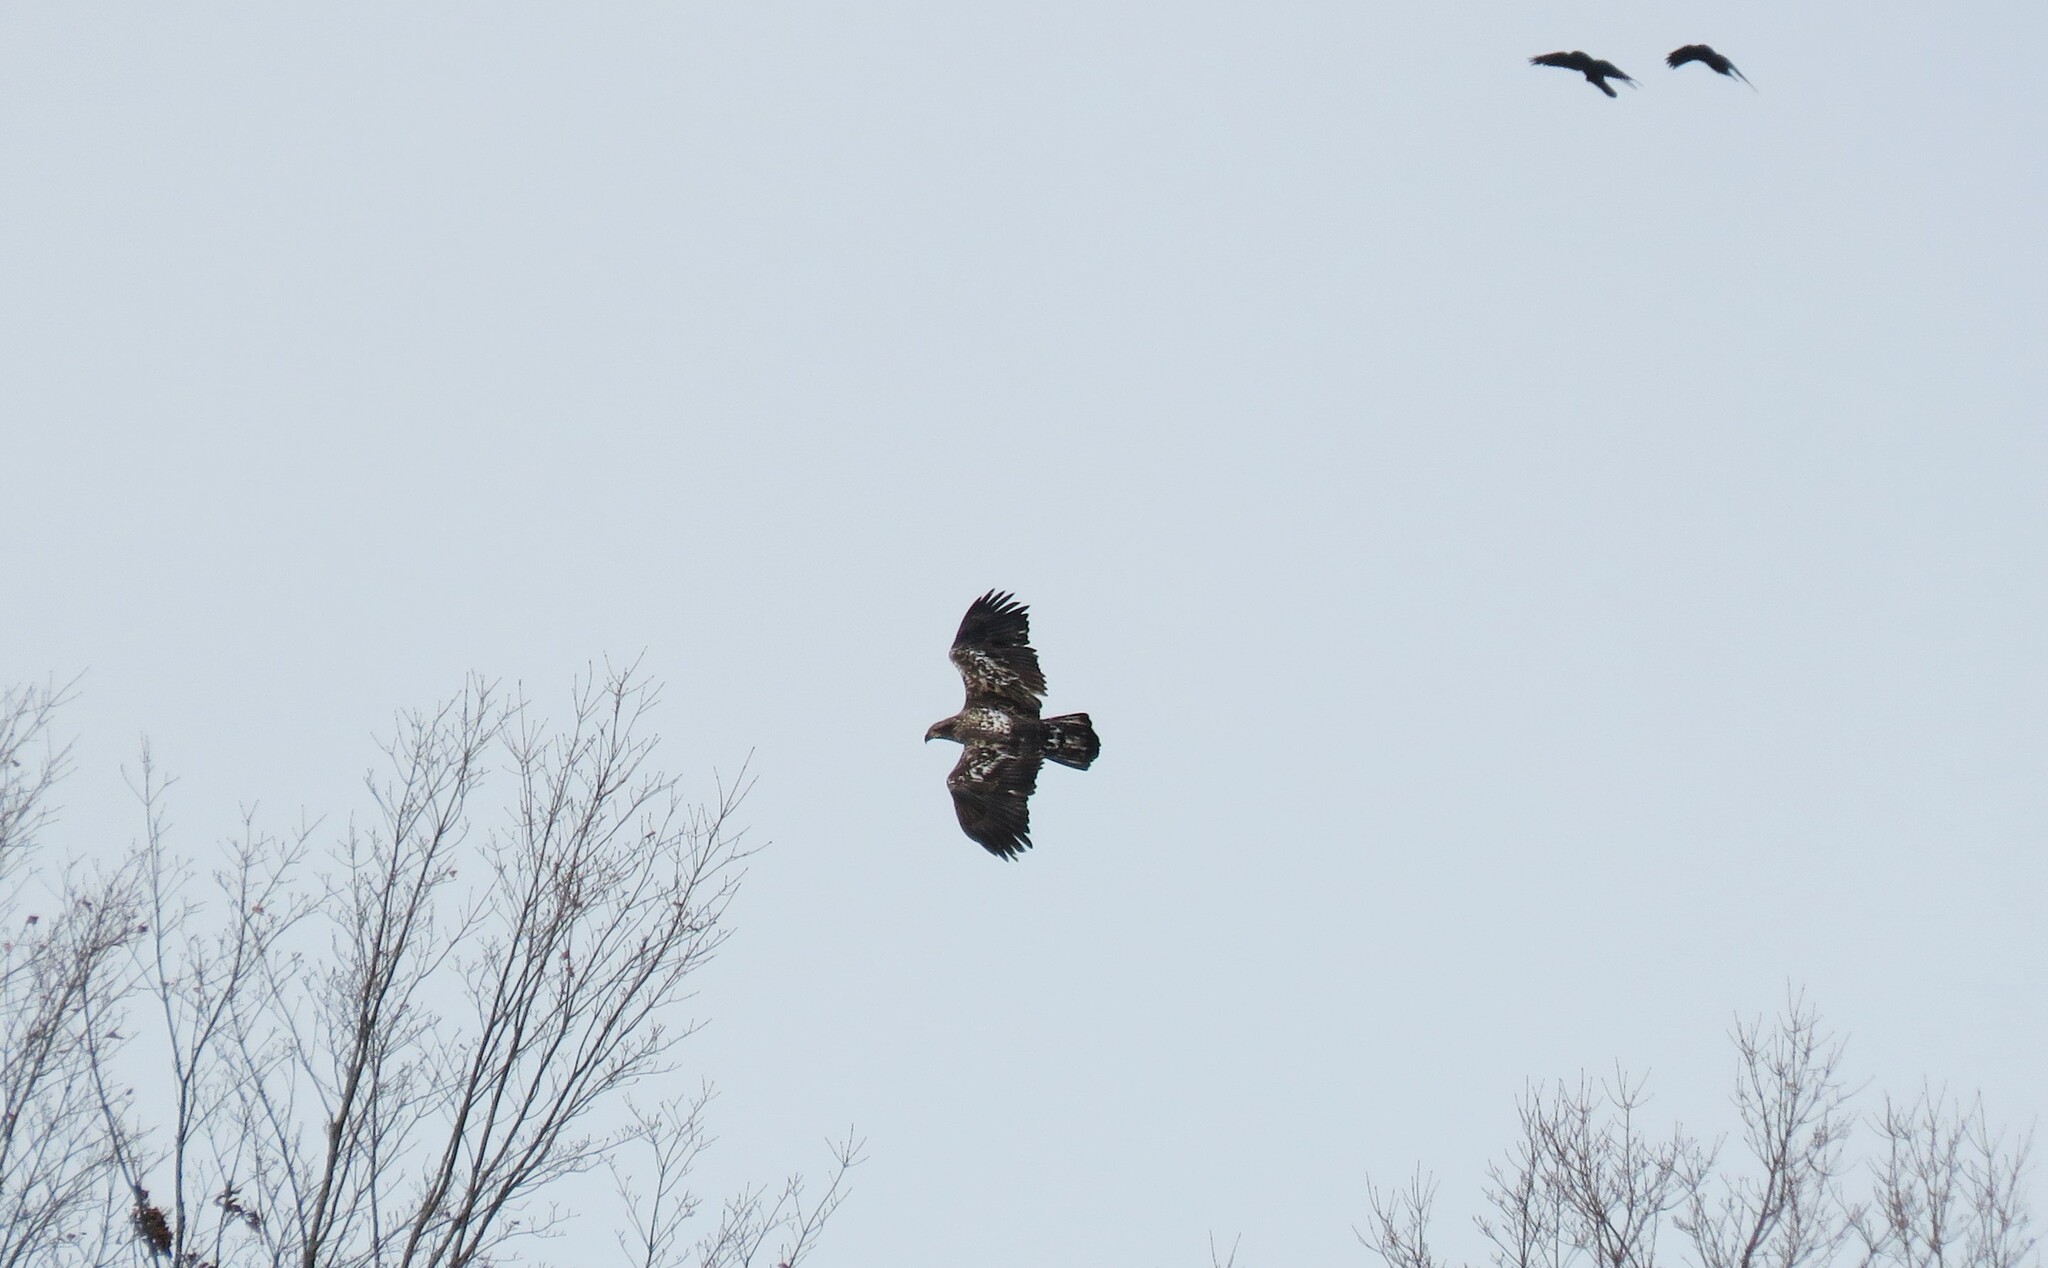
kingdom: Animalia
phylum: Chordata
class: Aves
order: Accipitriformes
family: Accipitridae
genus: Haliaeetus
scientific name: Haliaeetus leucocephalus
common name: Bald eagle
